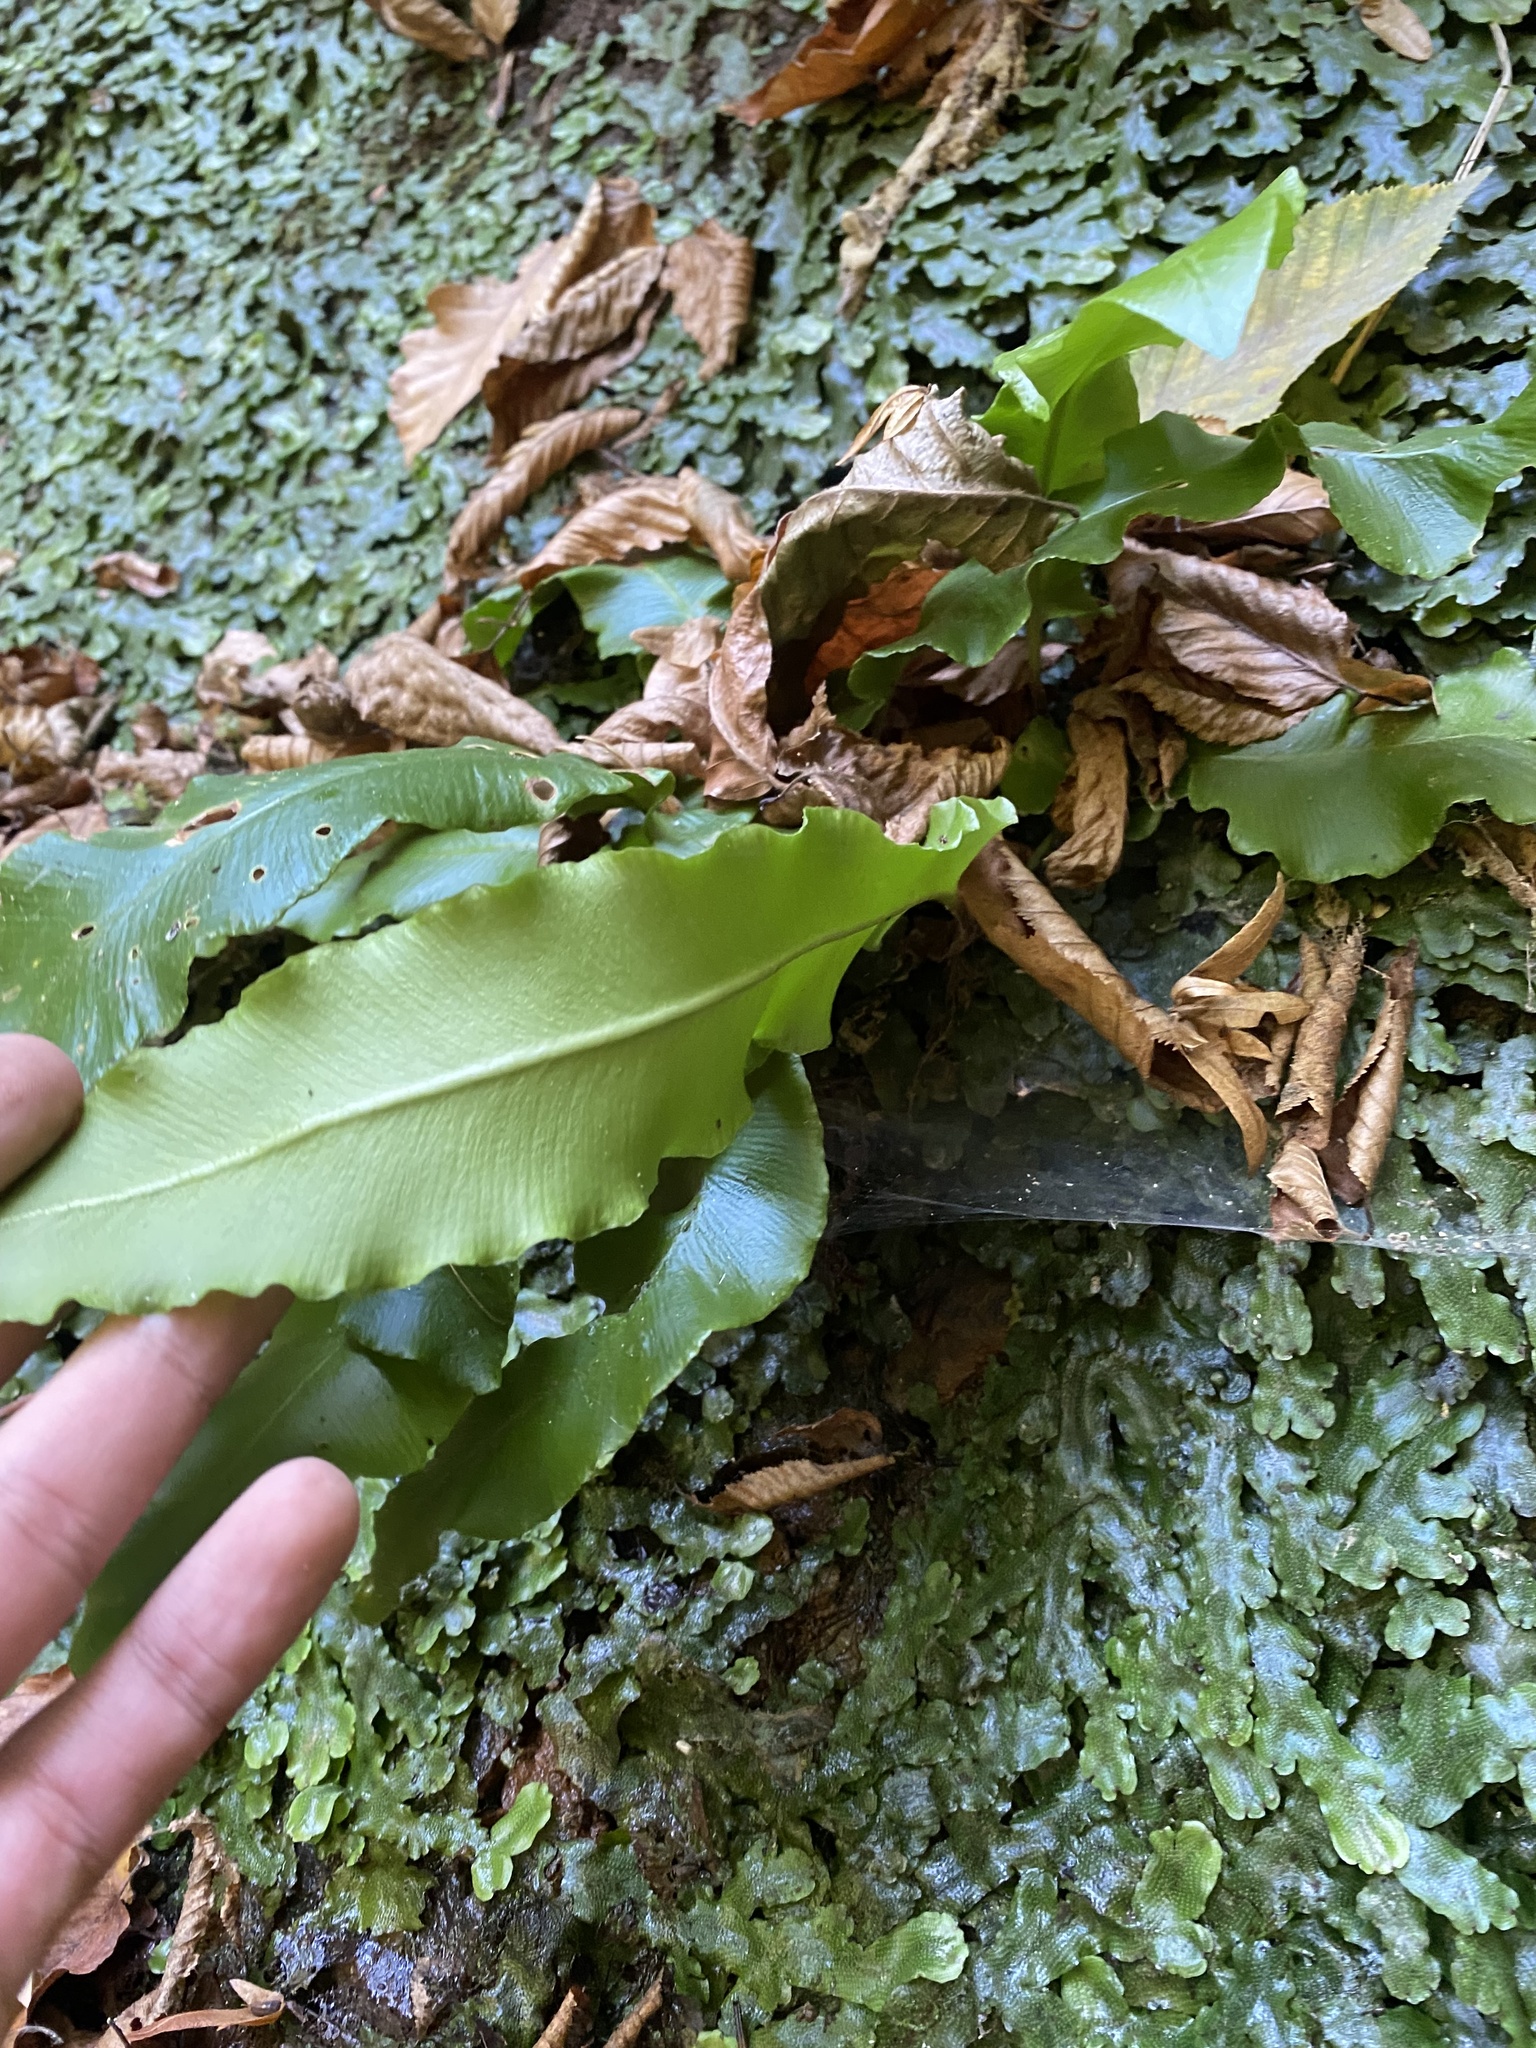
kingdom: Plantae
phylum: Tracheophyta
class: Polypodiopsida
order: Polypodiales
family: Aspleniaceae
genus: Asplenium
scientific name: Asplenium scolopendrium
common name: Hart's-tongue fern
